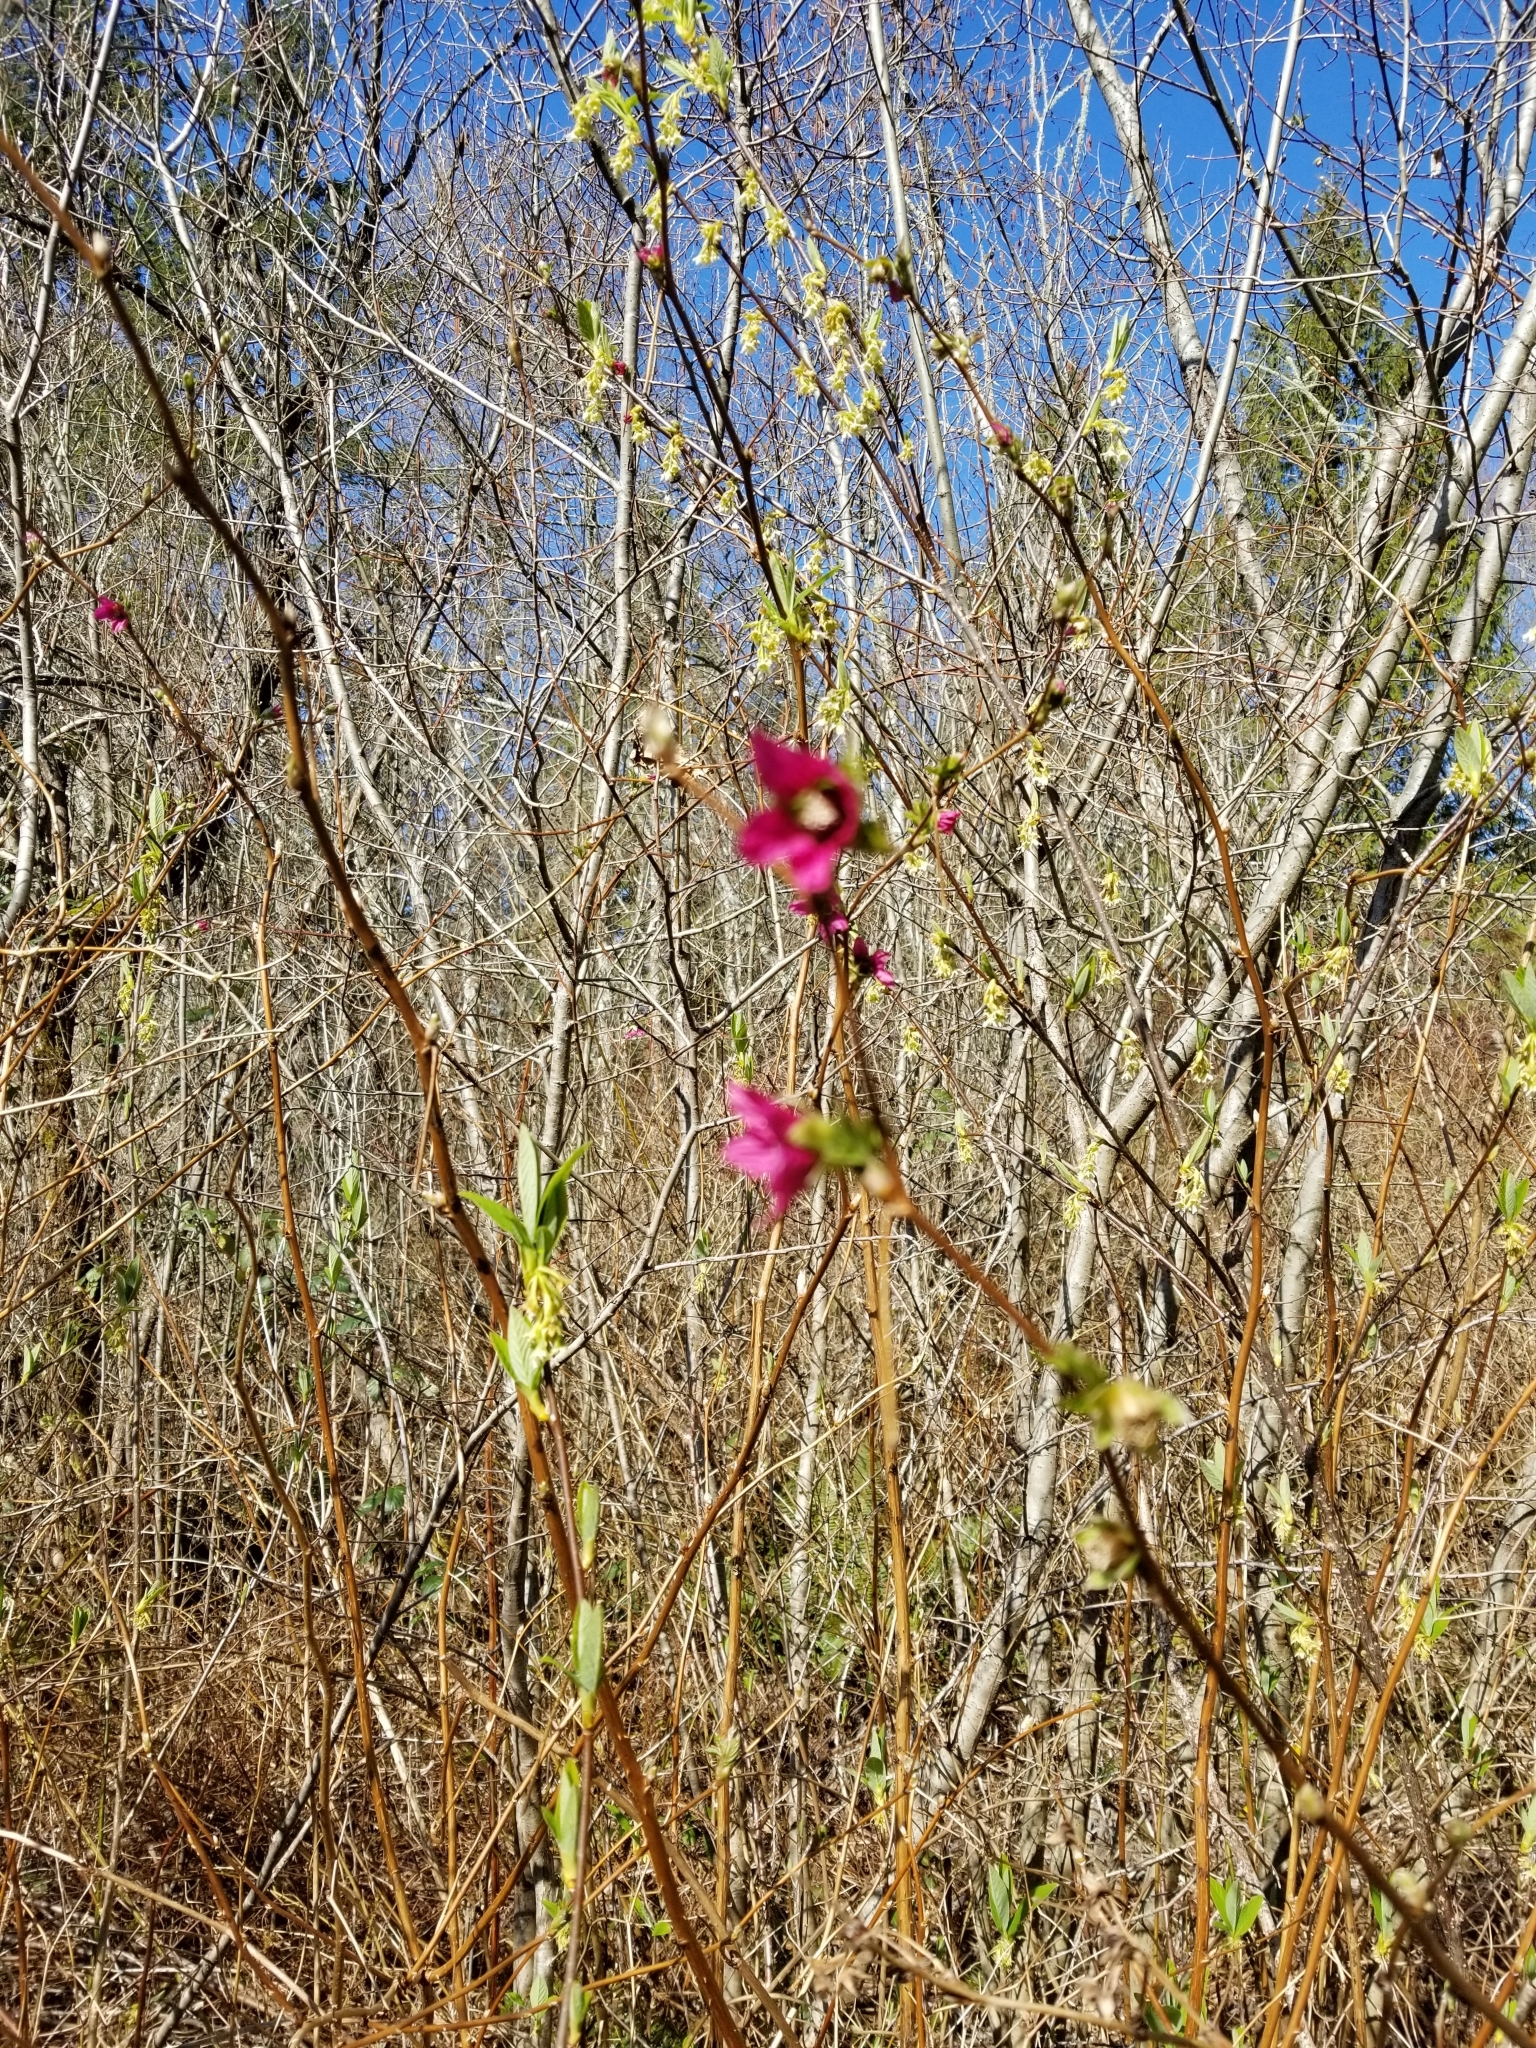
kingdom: Plantae
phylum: Tracheophyta
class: Magnoliopsida
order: Rosales
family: Rosaceae
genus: Rubus
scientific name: Rubus spectabilis
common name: Salmonberry
